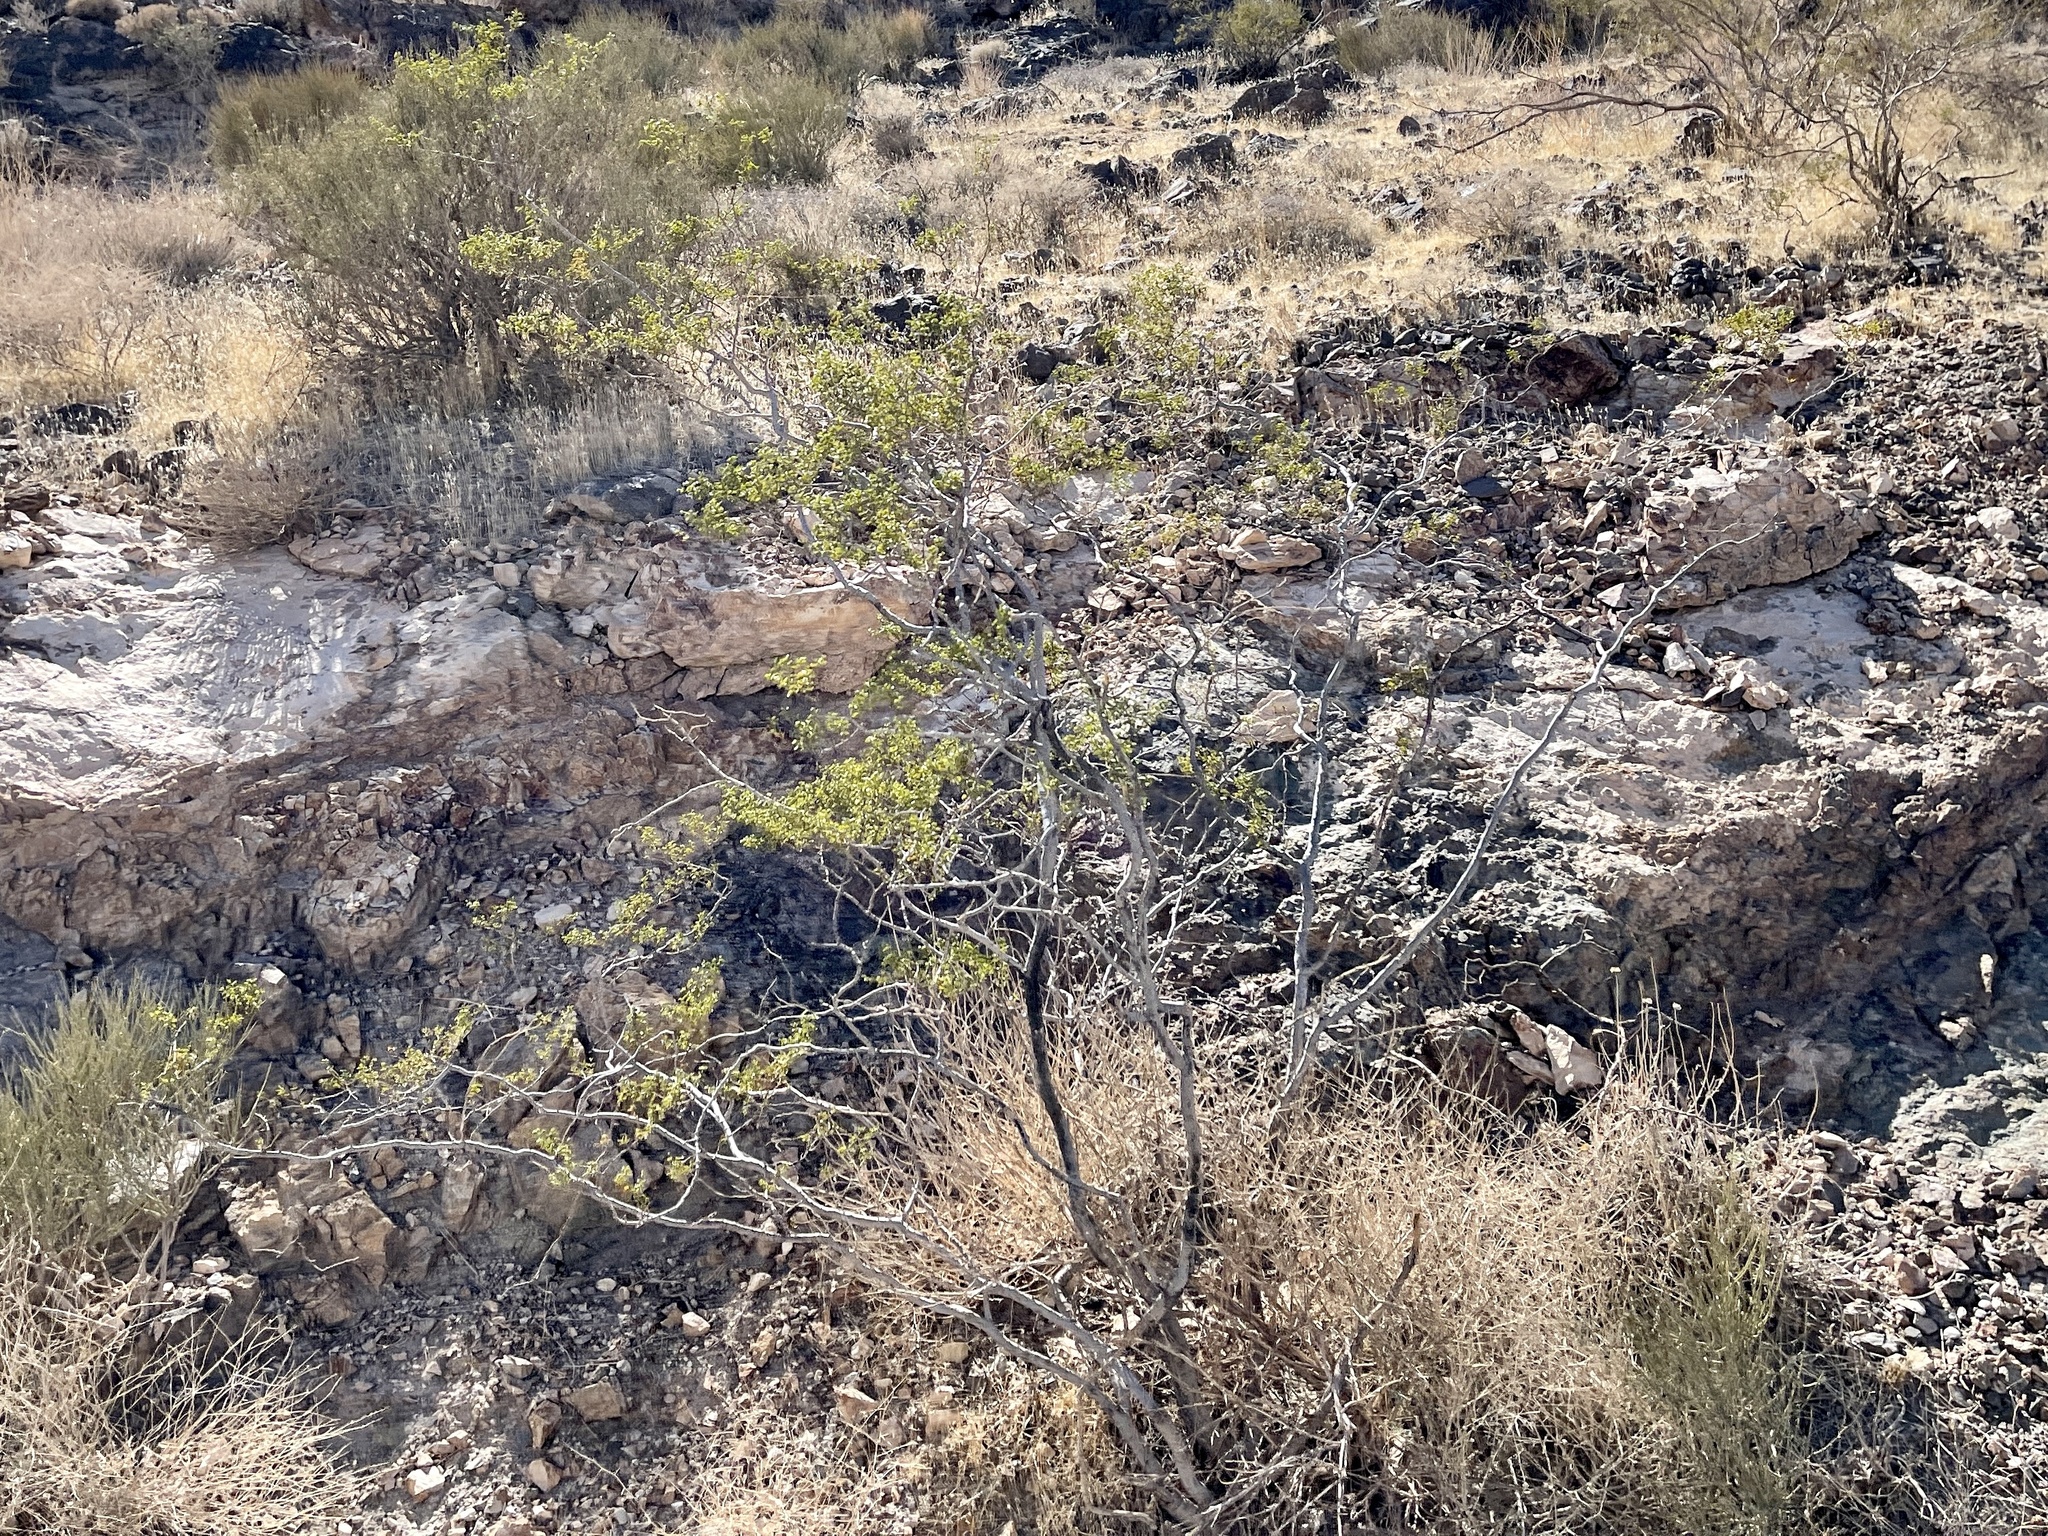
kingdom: Plantae
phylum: Tracheophyta
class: Magnoliopsida
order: Zygophyllales
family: Zygophyllaceae
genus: Larrea
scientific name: Larrea tridentata
